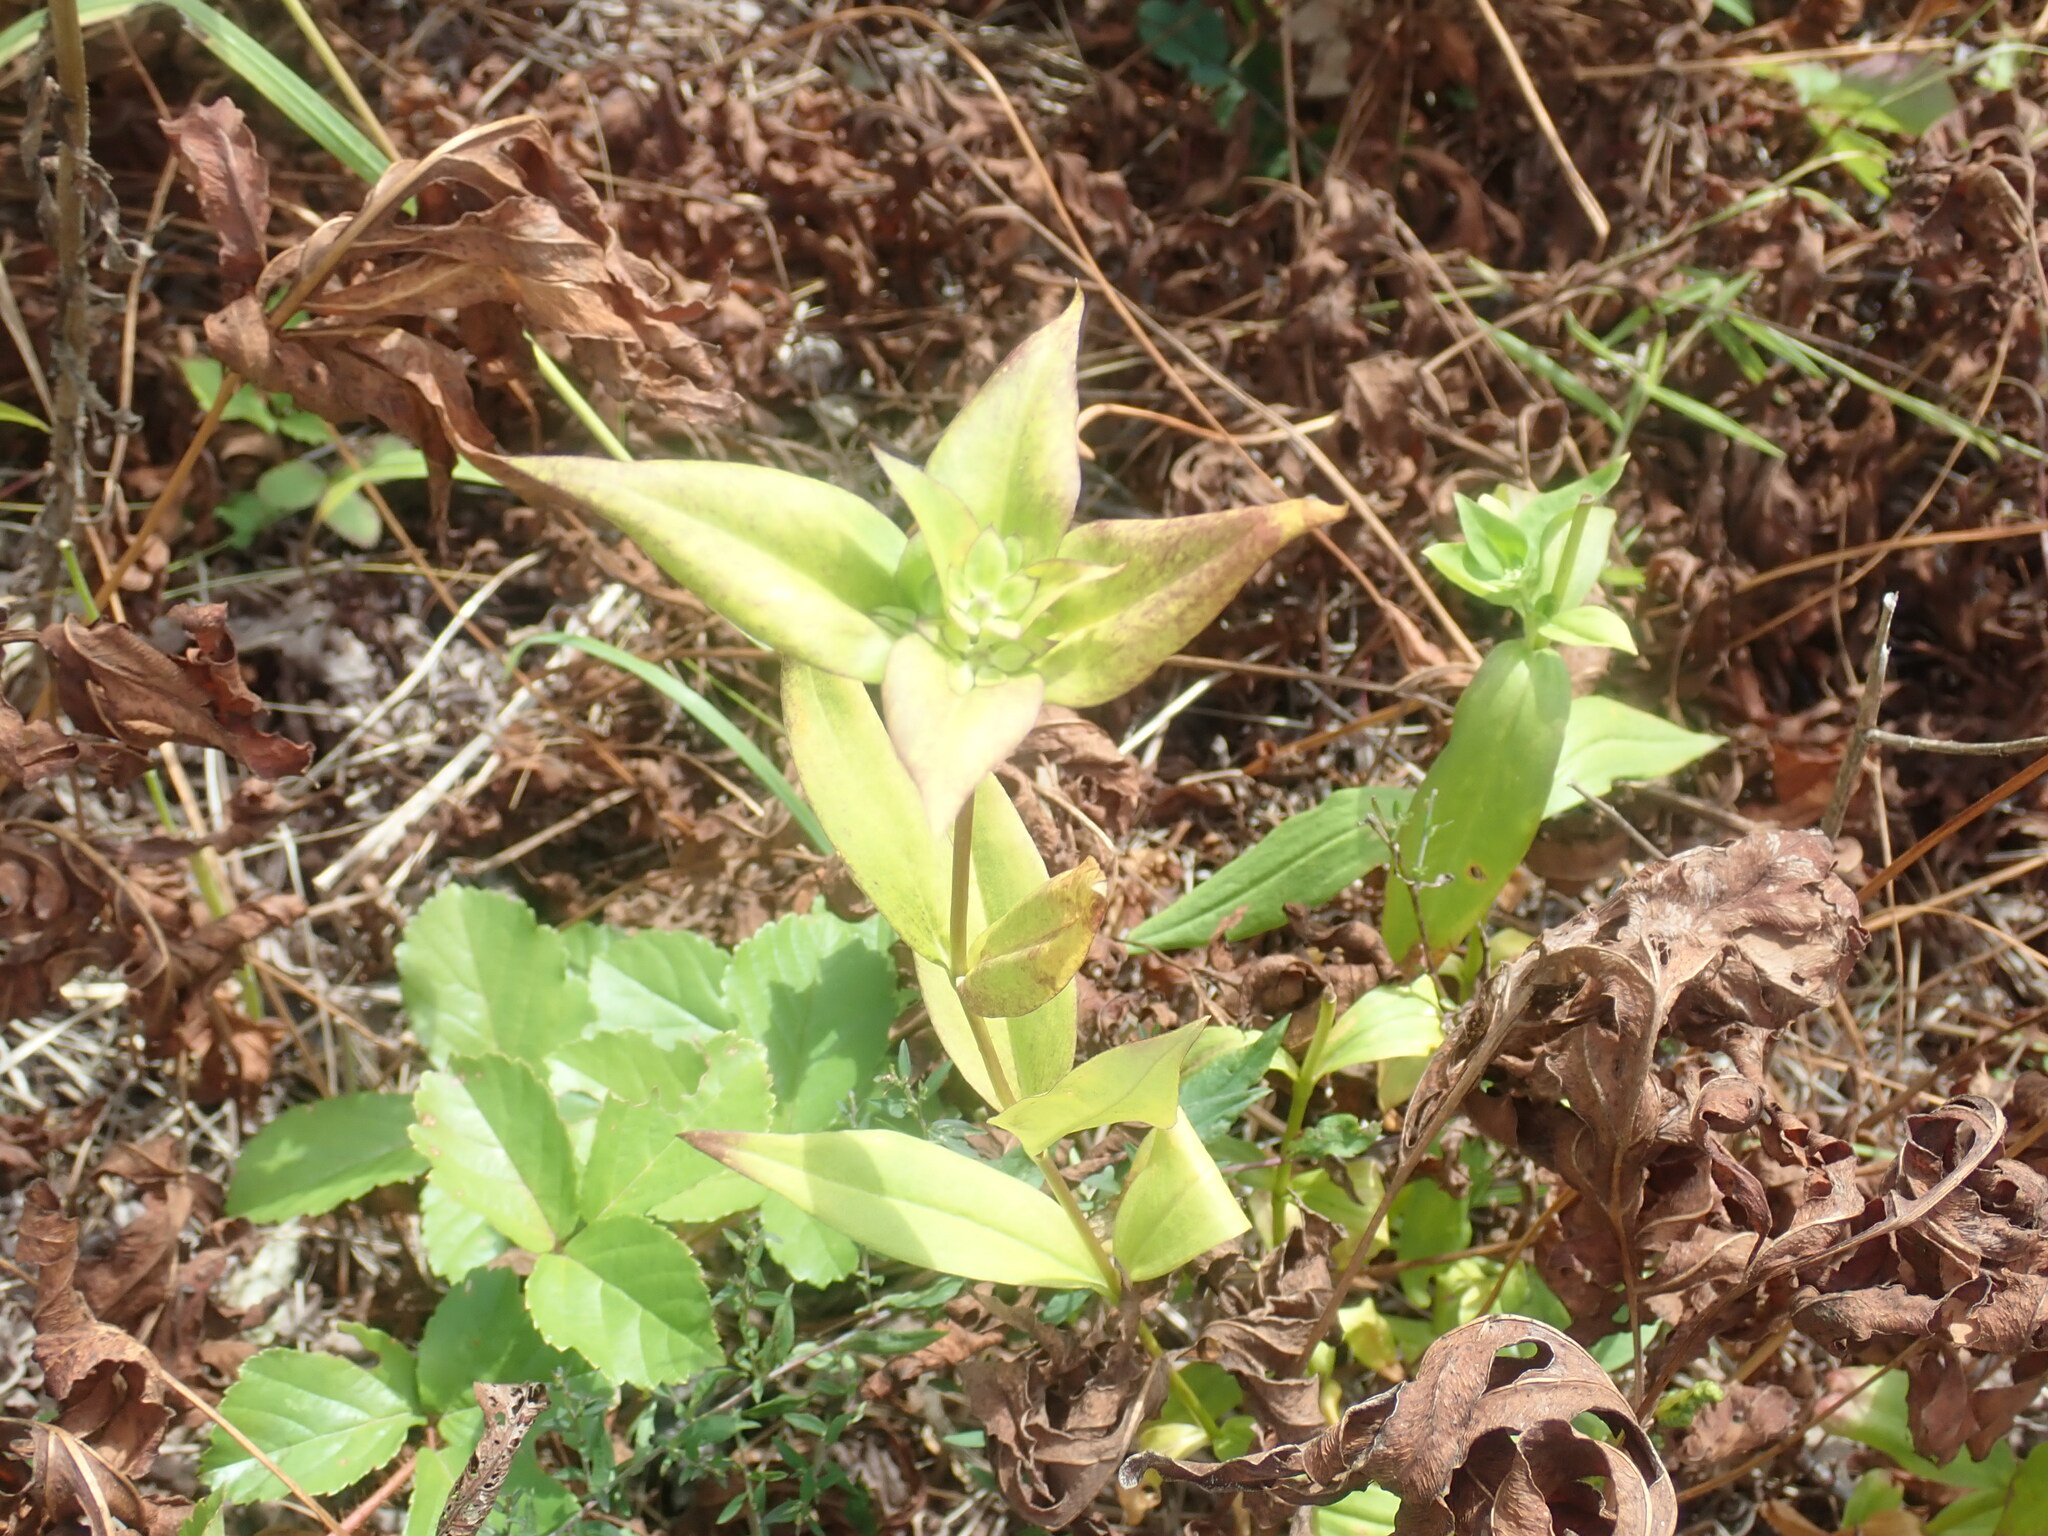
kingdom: Plantae
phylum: Tracheophyta
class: Magnoliopsida
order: Gentianales
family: Gentianaceae
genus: Gentiana
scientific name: Gentiana clausa
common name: Blind gentian
